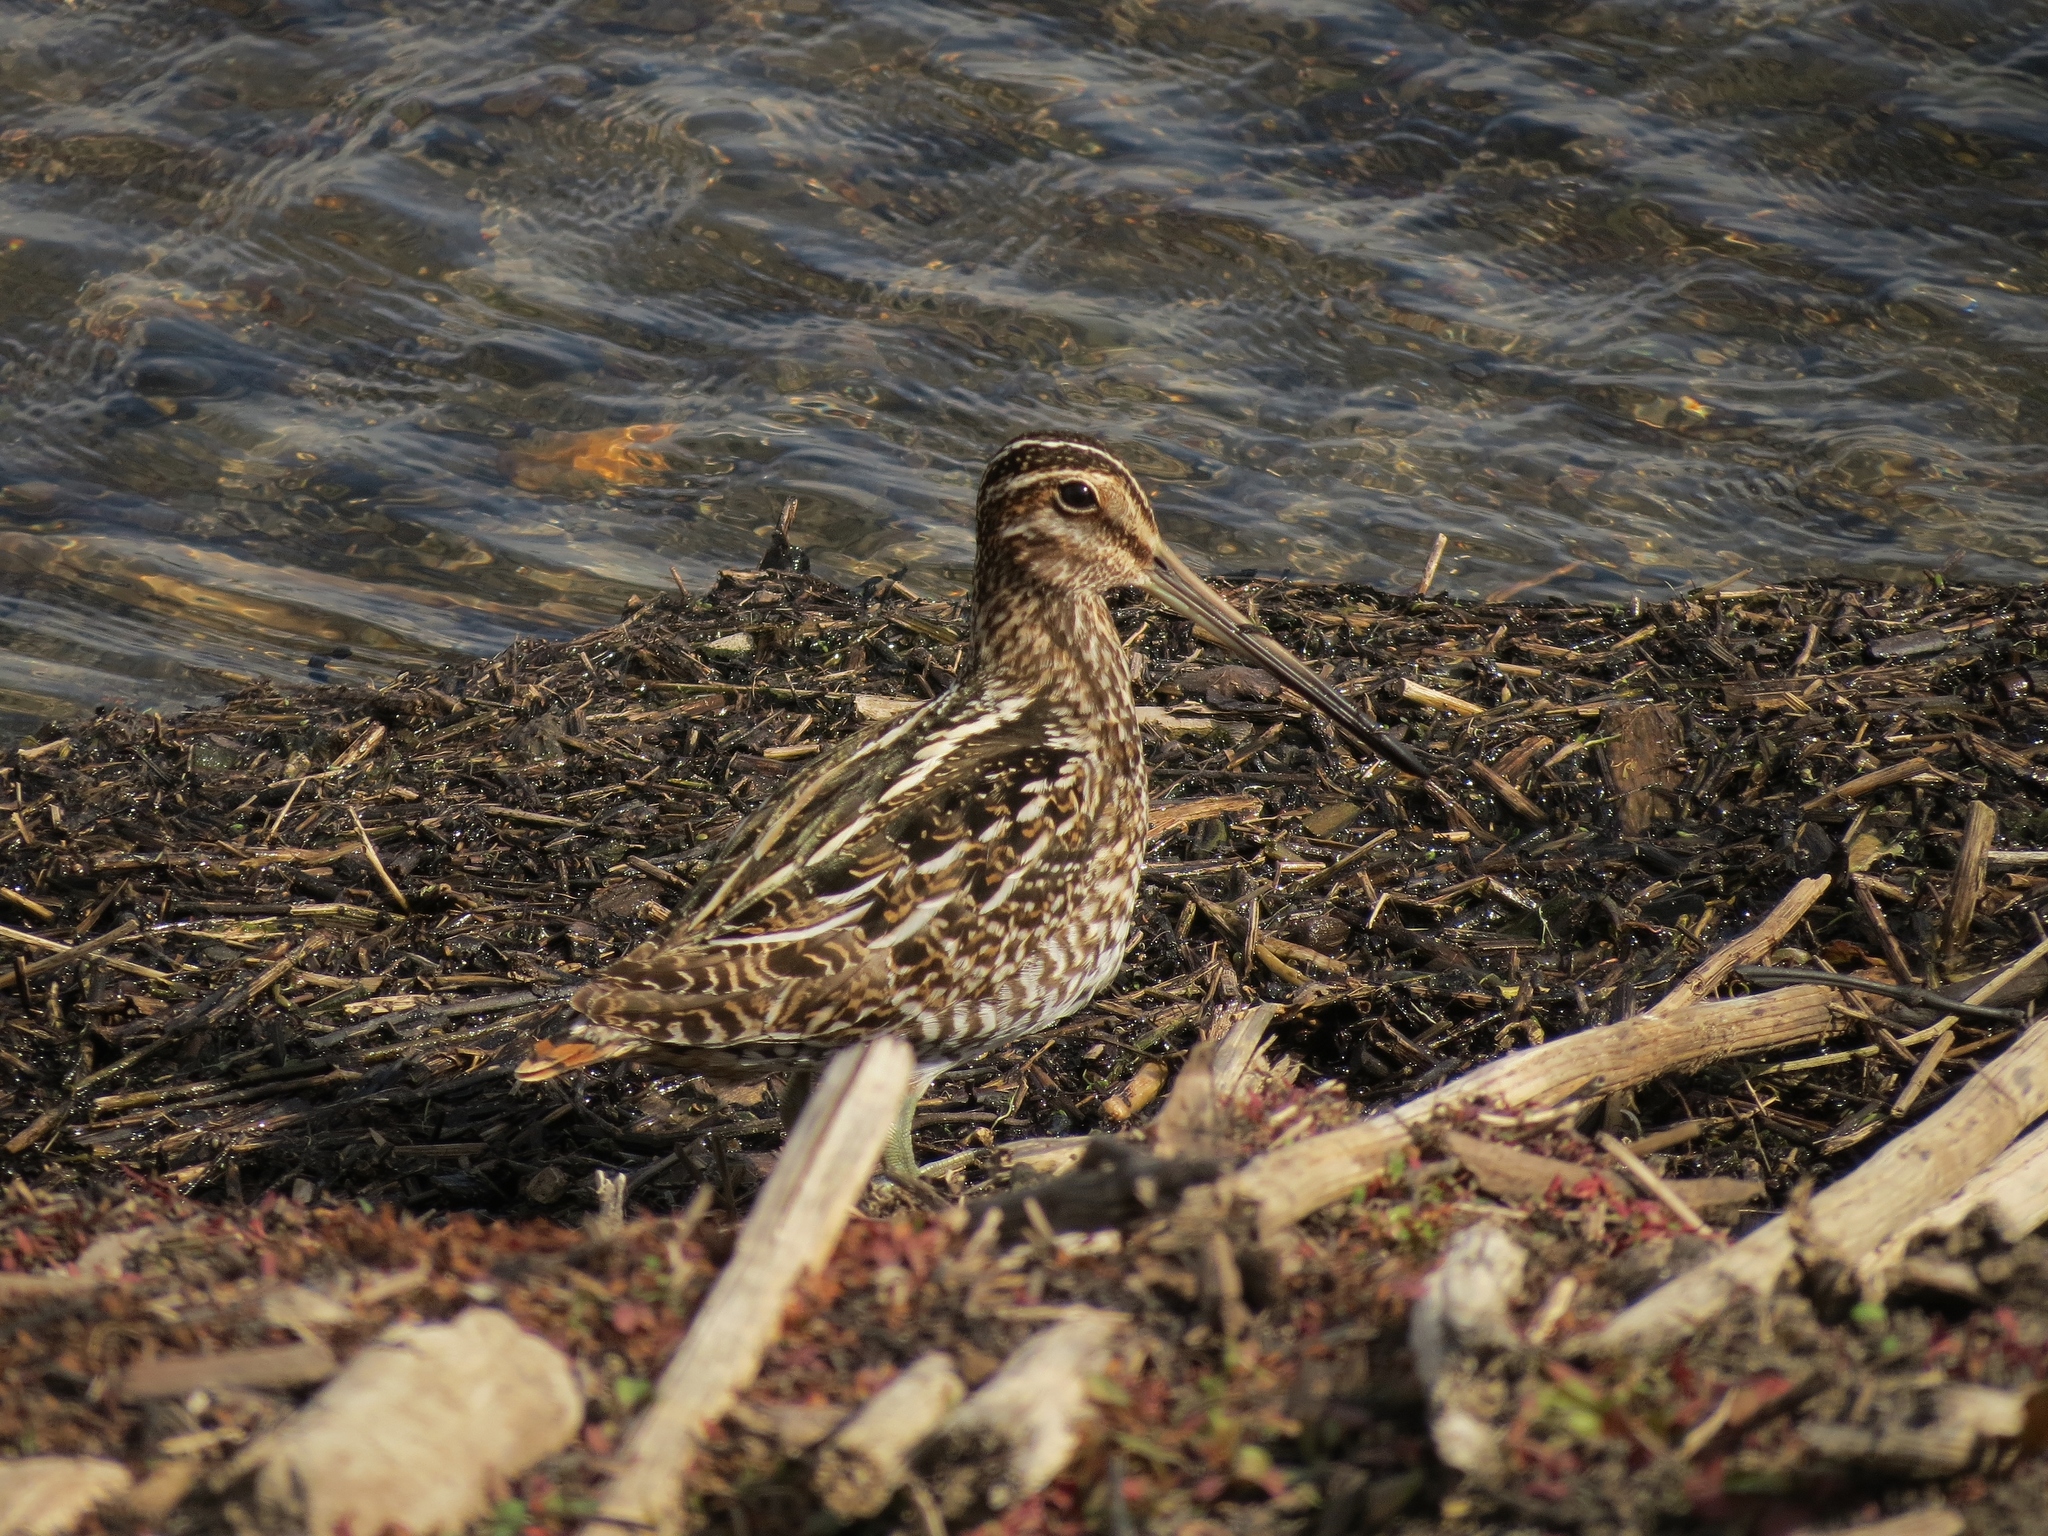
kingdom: Animalia
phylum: Chordata
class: Aves
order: Charadriiformes
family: Scolopacidae
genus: Gallinago
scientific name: Gallinago delicata
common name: Wilson's snipe
